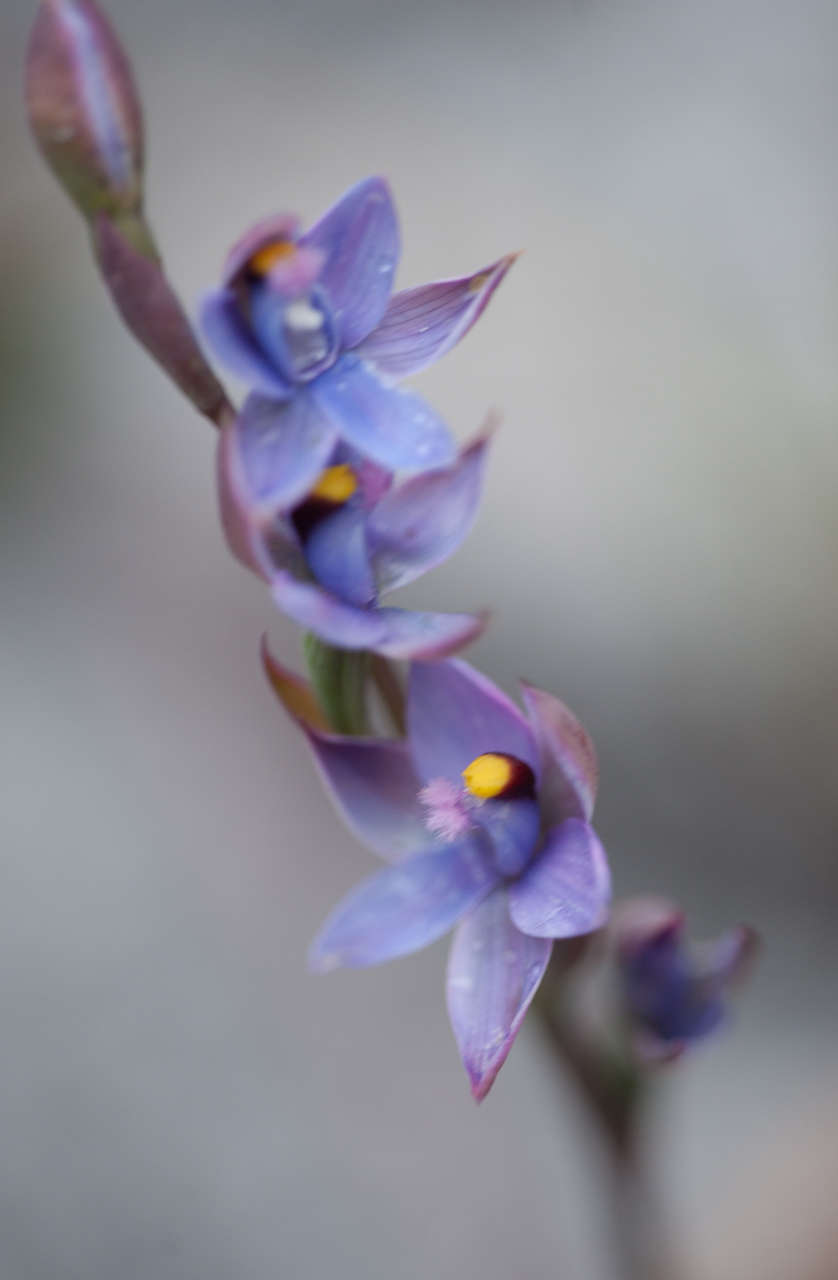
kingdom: Plantae
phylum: Tracheophyta
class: Liliopsida
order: Asparagales
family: Orchidaceae
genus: Thelymitra
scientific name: Thelymitra malvina
